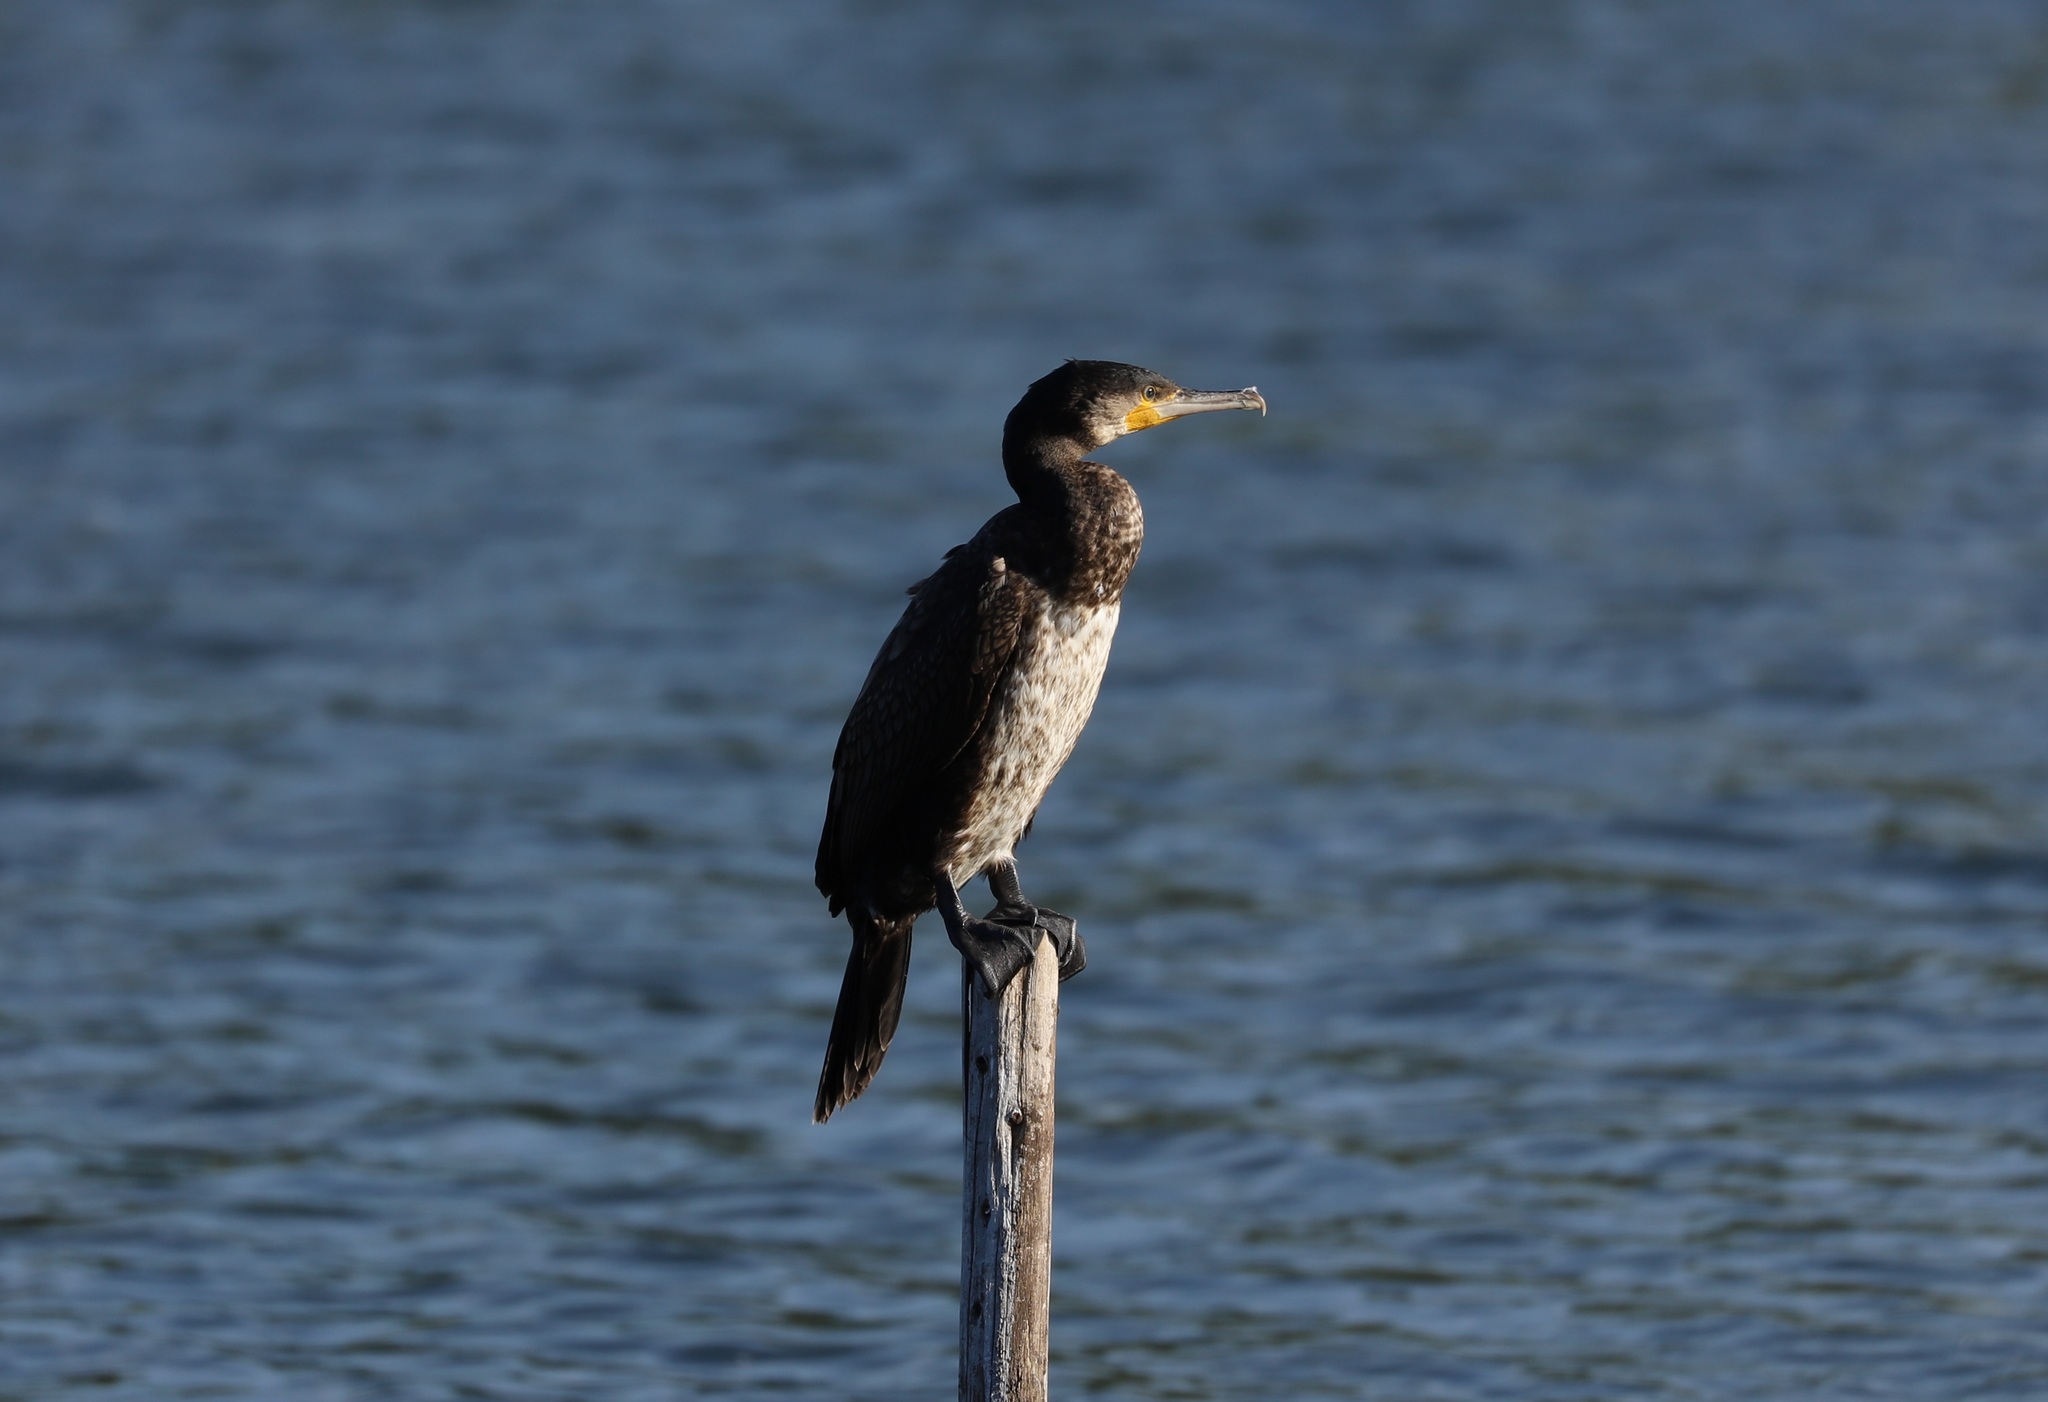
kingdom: Animalia
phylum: Chordata
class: Aves
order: Suliformes
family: Phalacrocoracidae
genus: Phalacrocorax
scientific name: Phalacrocorax carbo
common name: Great cormorant
